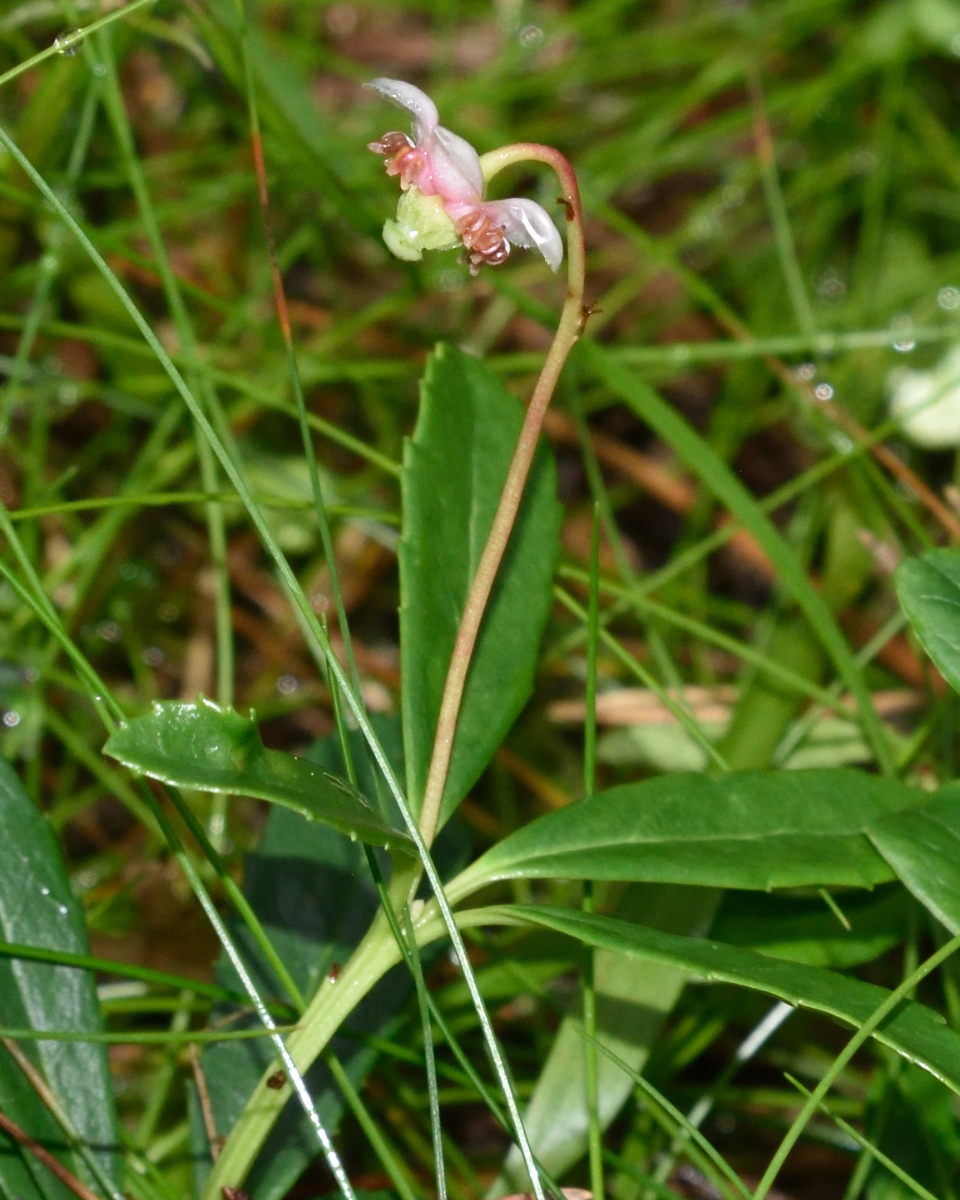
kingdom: Plantae
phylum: Tracheophyta
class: Magnoliopsida
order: Ericales
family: Ericaceae
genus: Chimaphila
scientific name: Chimaphila umbellata
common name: Pipsissewa
